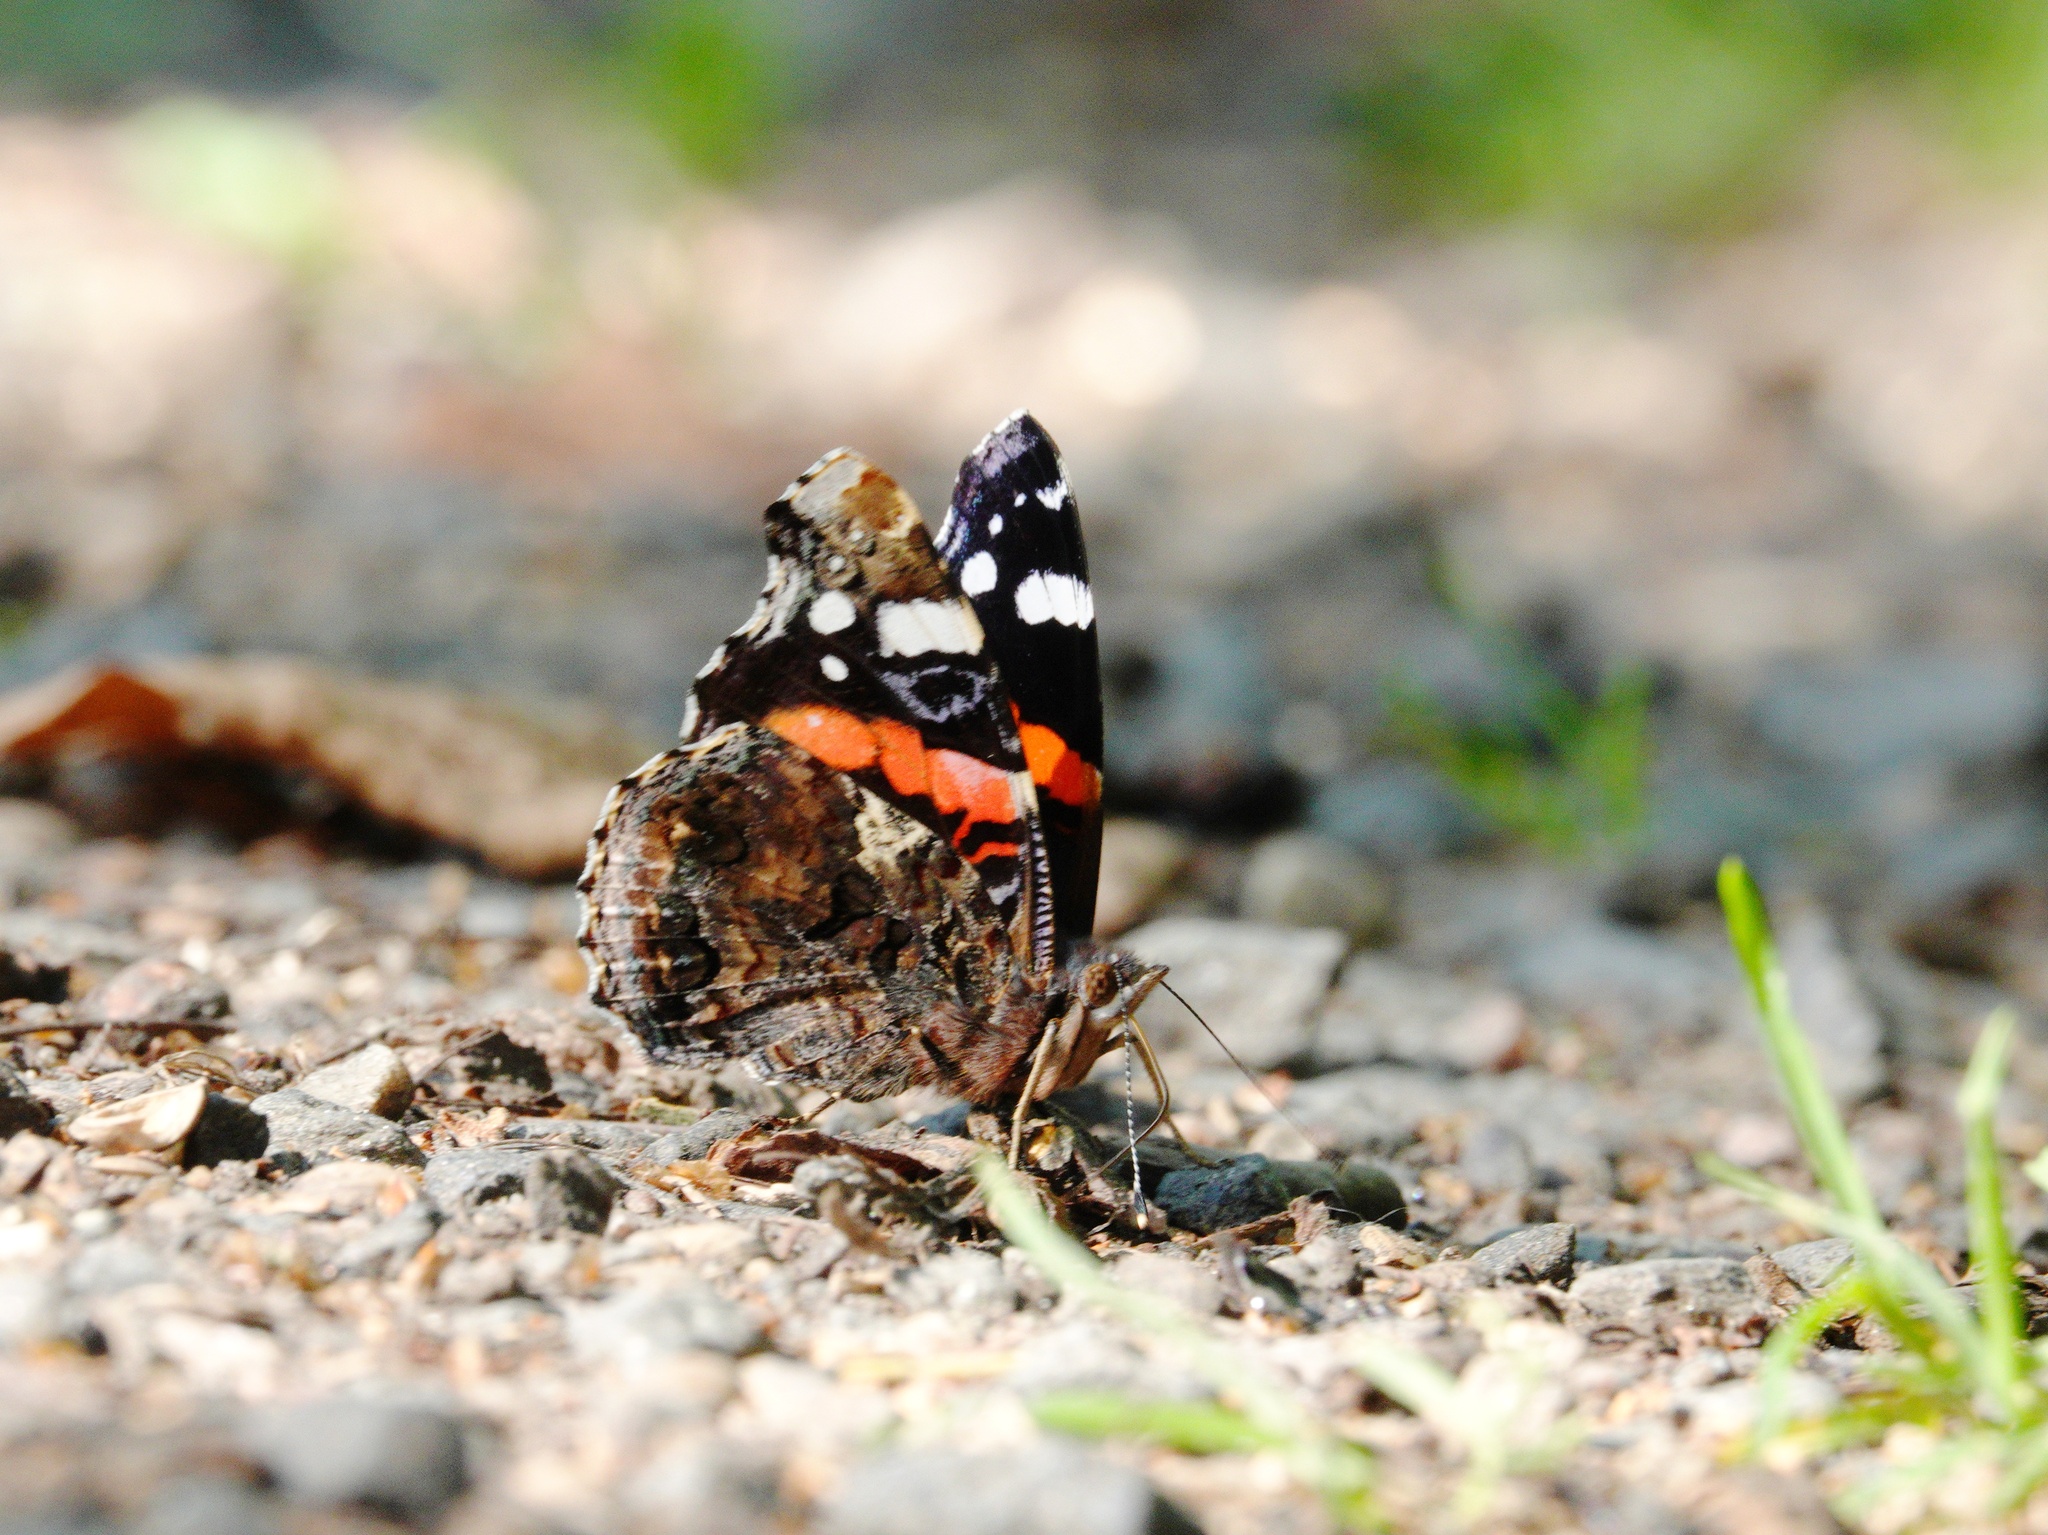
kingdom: Animalia
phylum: Arthropoda
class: Insecta
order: Lepidoptera
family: Nymphalidae
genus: Vanessa
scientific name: Vanessa atalanta
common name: Red admiral
